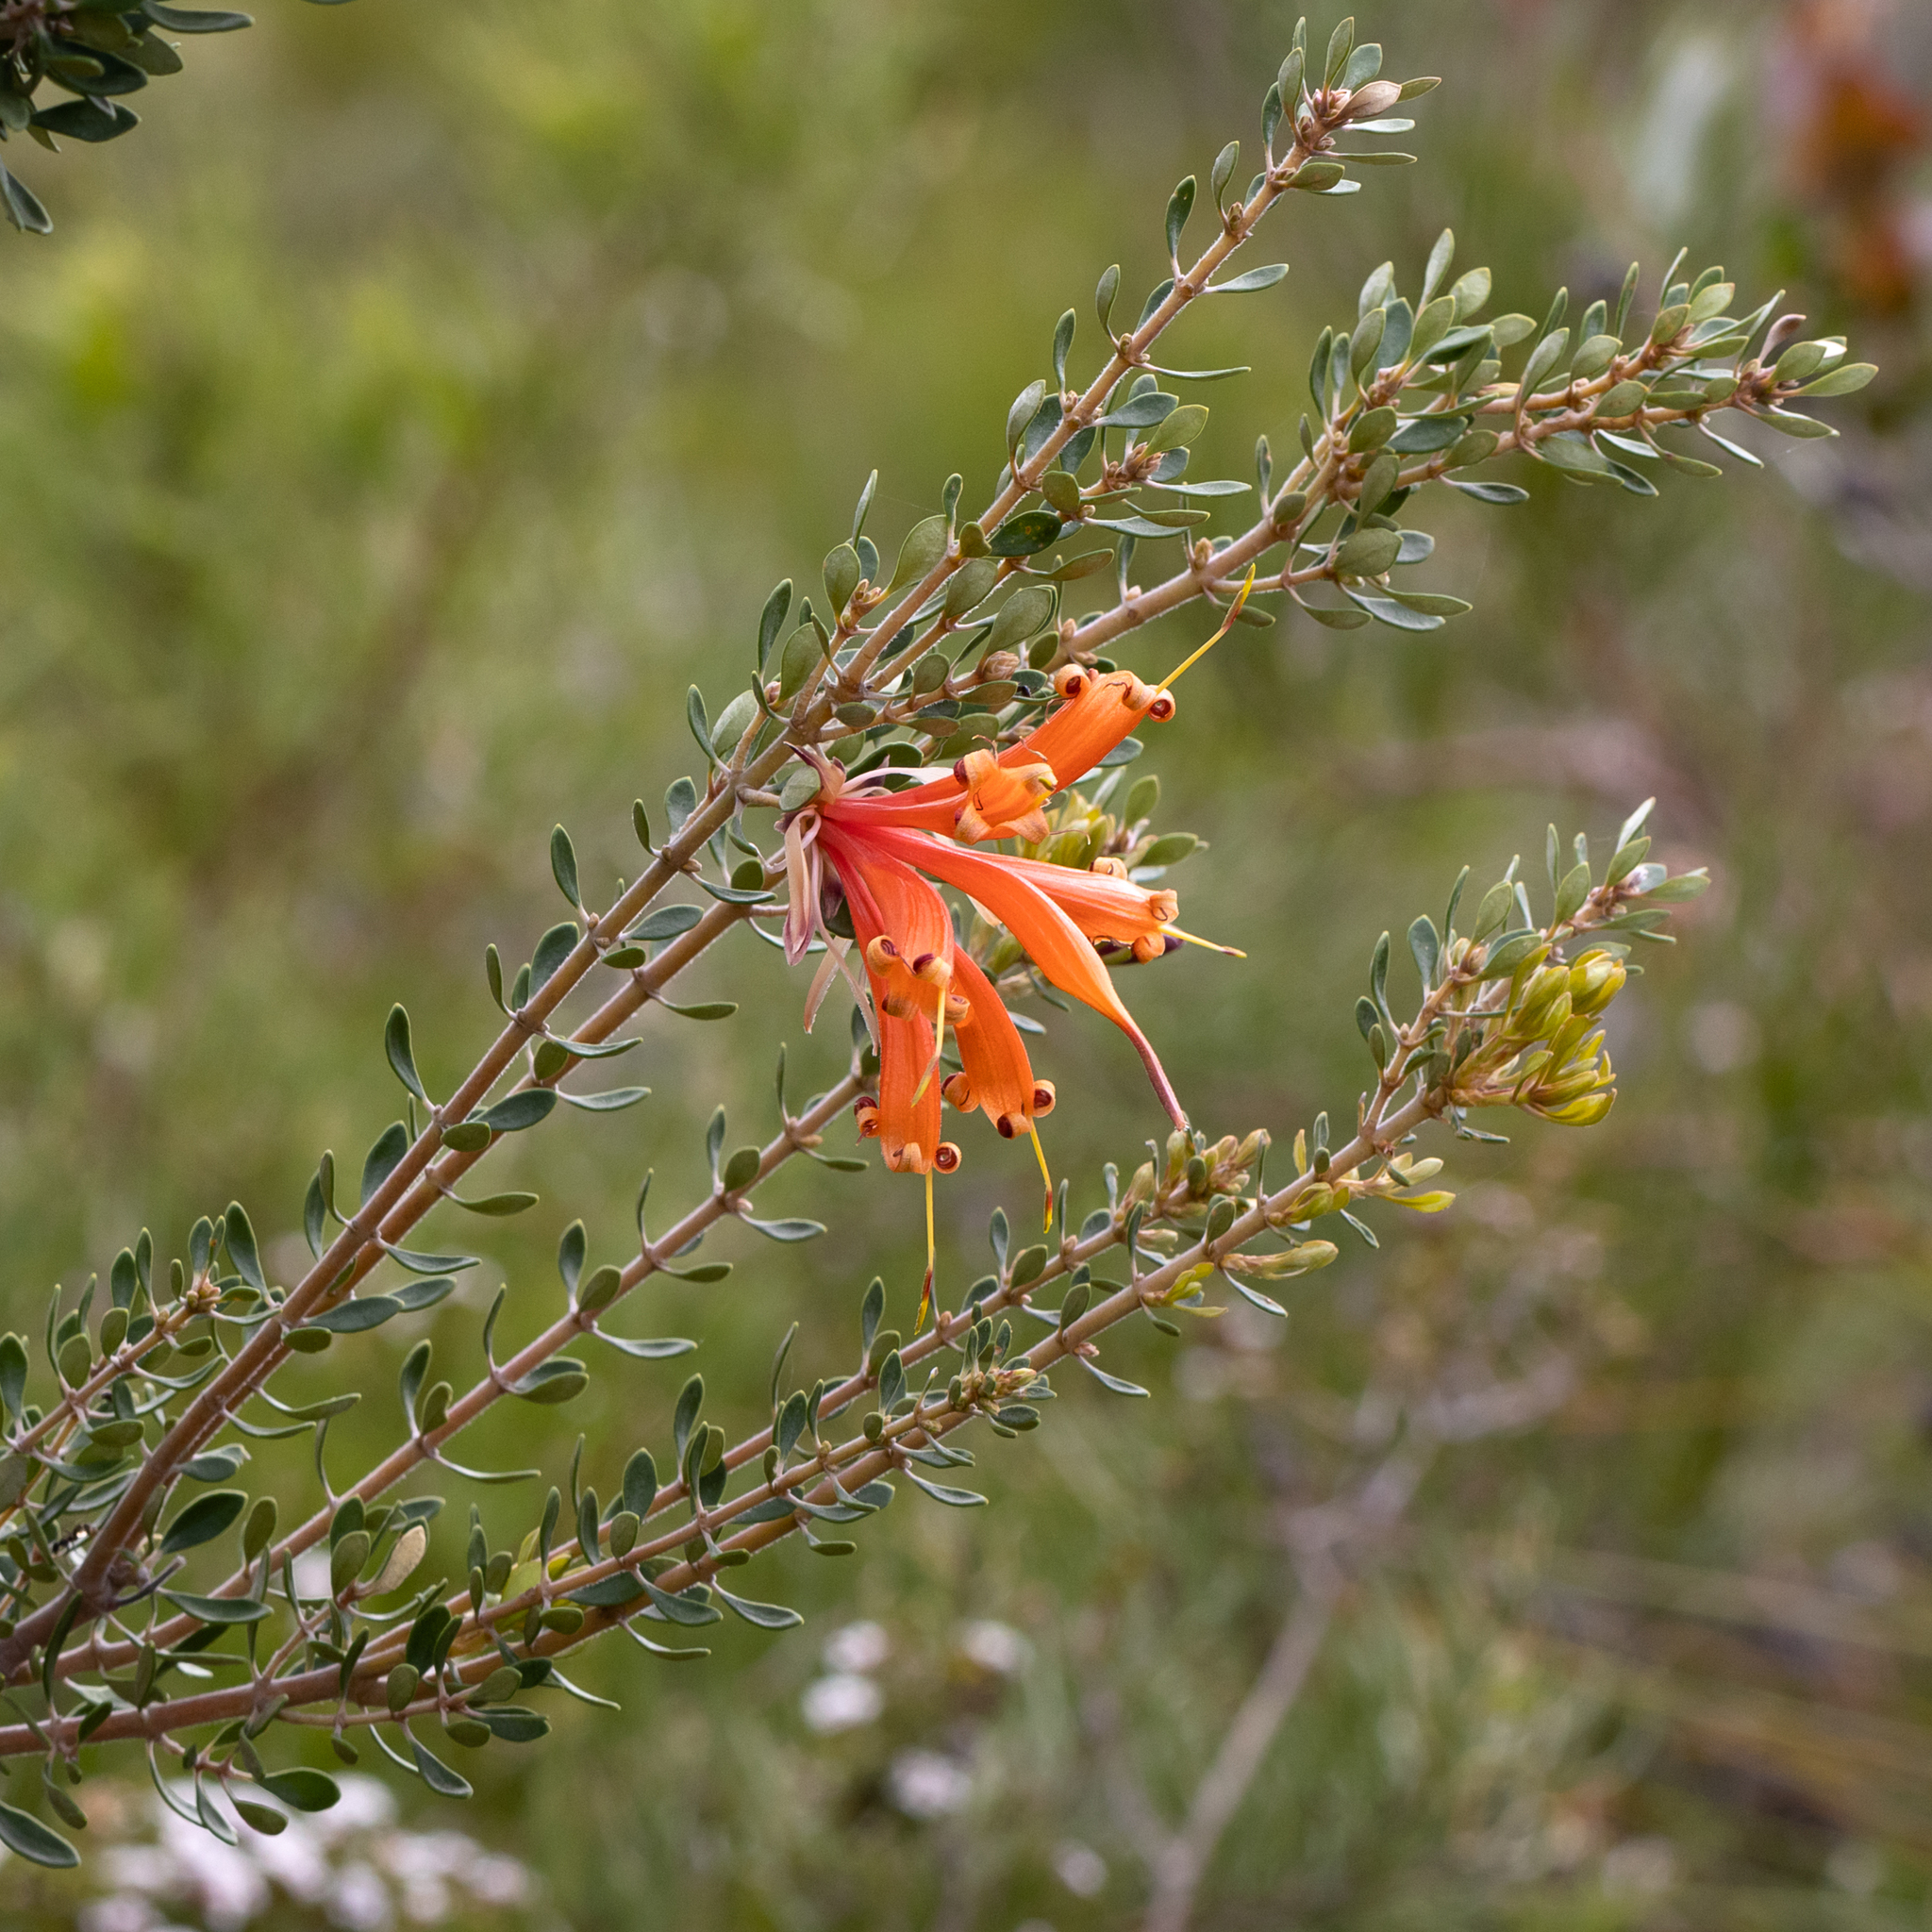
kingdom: Plantae
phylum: Tracheophyta
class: Magnoliopsida
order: Proteales
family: Proteaceae
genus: Lambertia
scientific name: Lambertia inermis
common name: Chittick
